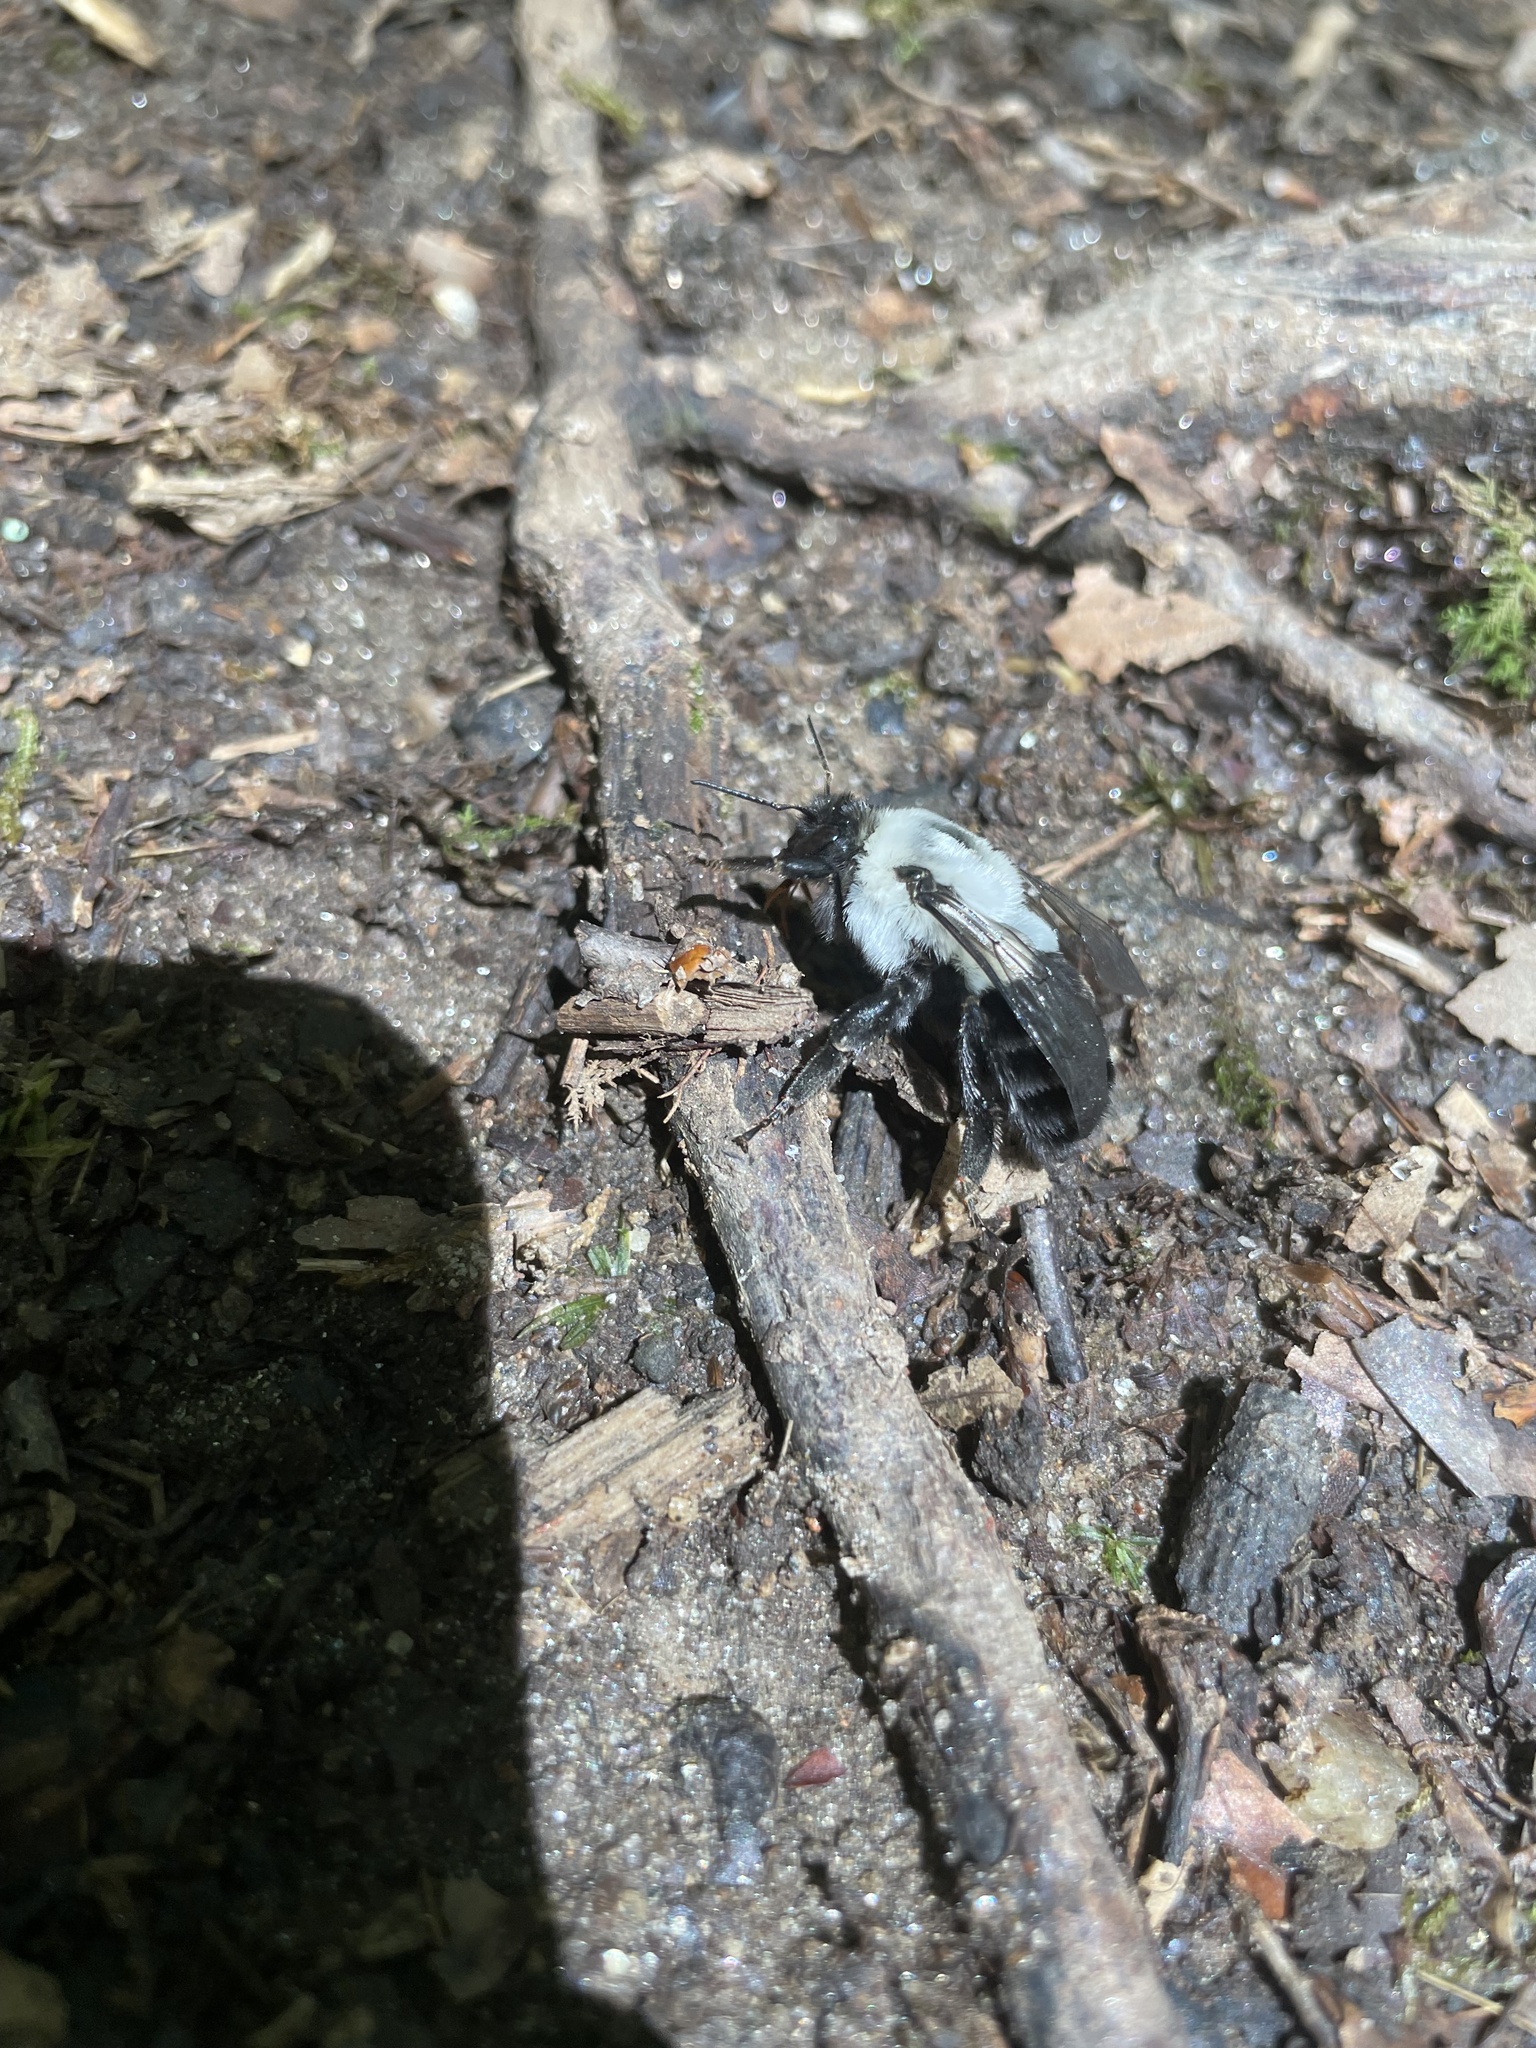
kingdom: Animalia
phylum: Arthropoda
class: Insecta
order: Hymenoptera
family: Apidae
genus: Bombus
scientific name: Bombus impatiens
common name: Common eastern bumble bee
